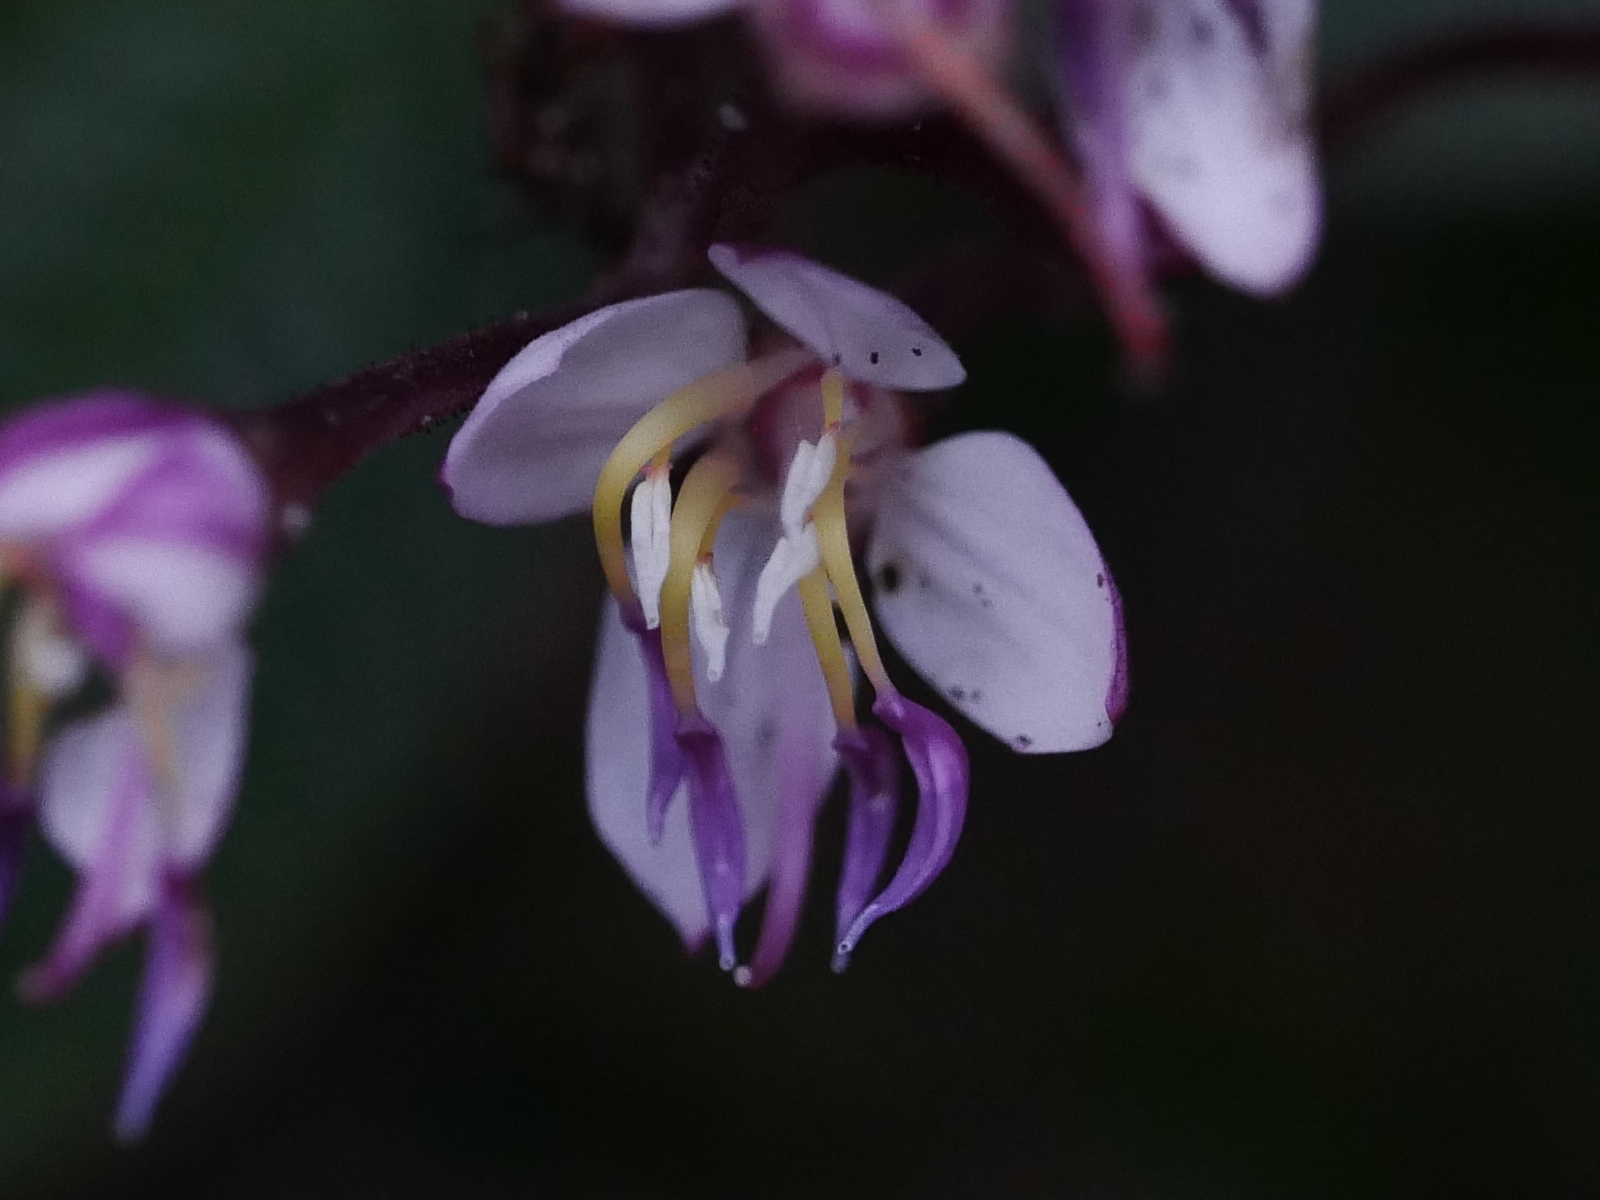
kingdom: Plantae
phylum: Tracheophyta
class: Magnoliopsida
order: Myrtales
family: Melastomataceae
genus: Bredia
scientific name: Bredia hirsuta
